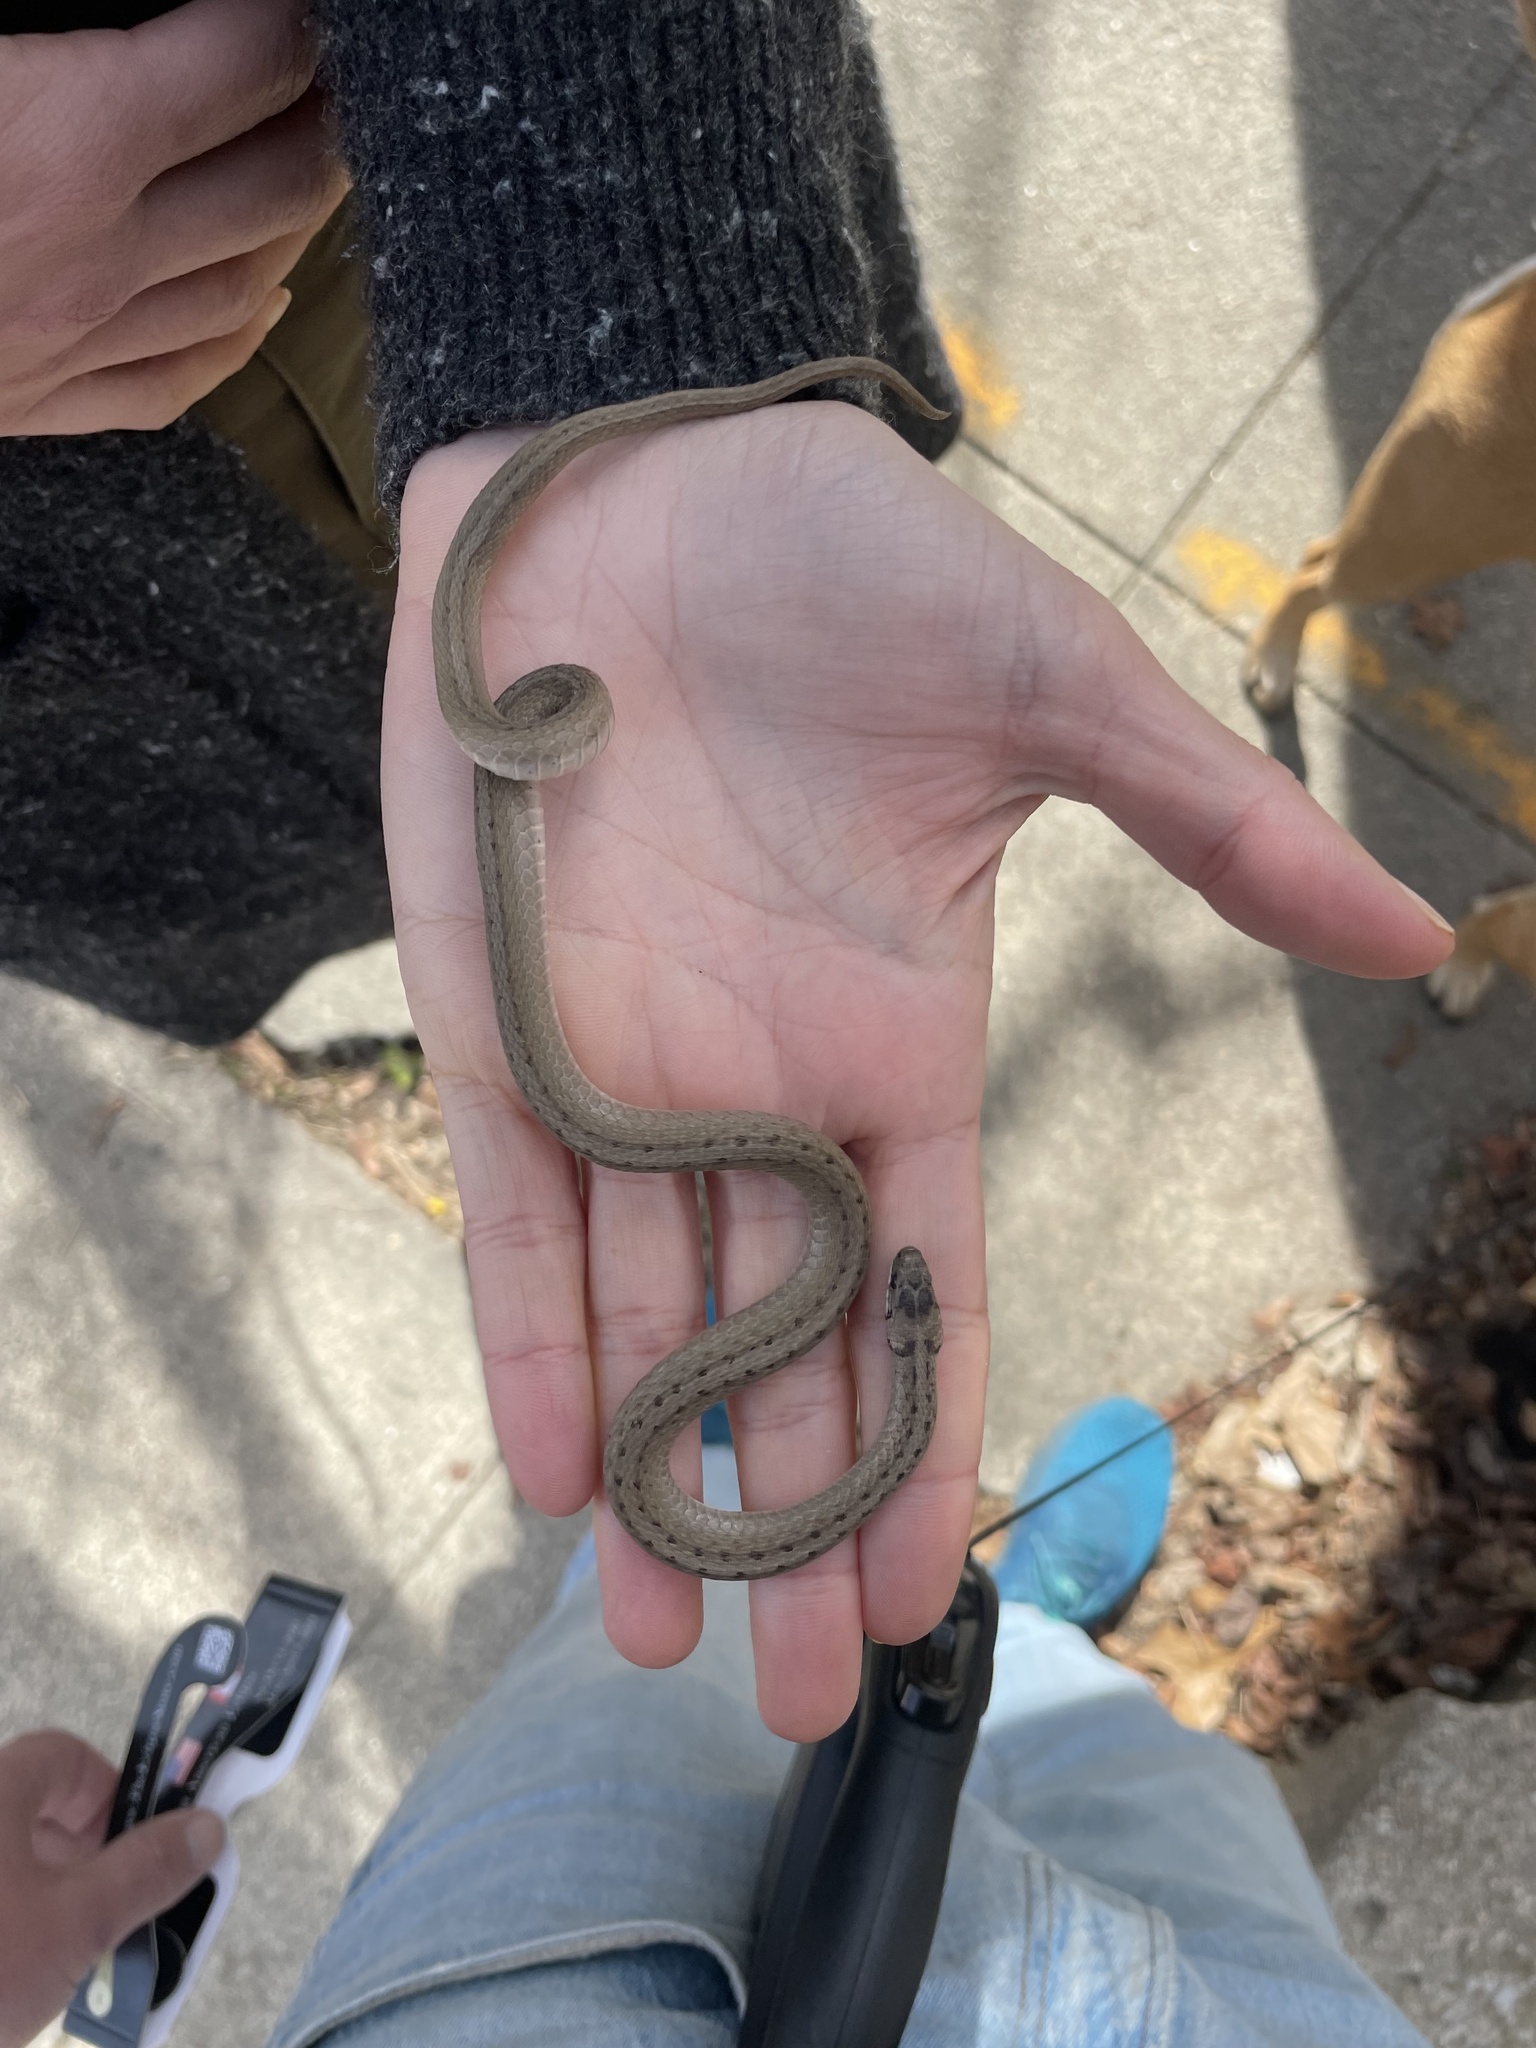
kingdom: Animalia
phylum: Chordata
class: Squamata
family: Colubridae
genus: Storeria
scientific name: Storeria dekayi
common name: (dekay’s) brown snake
